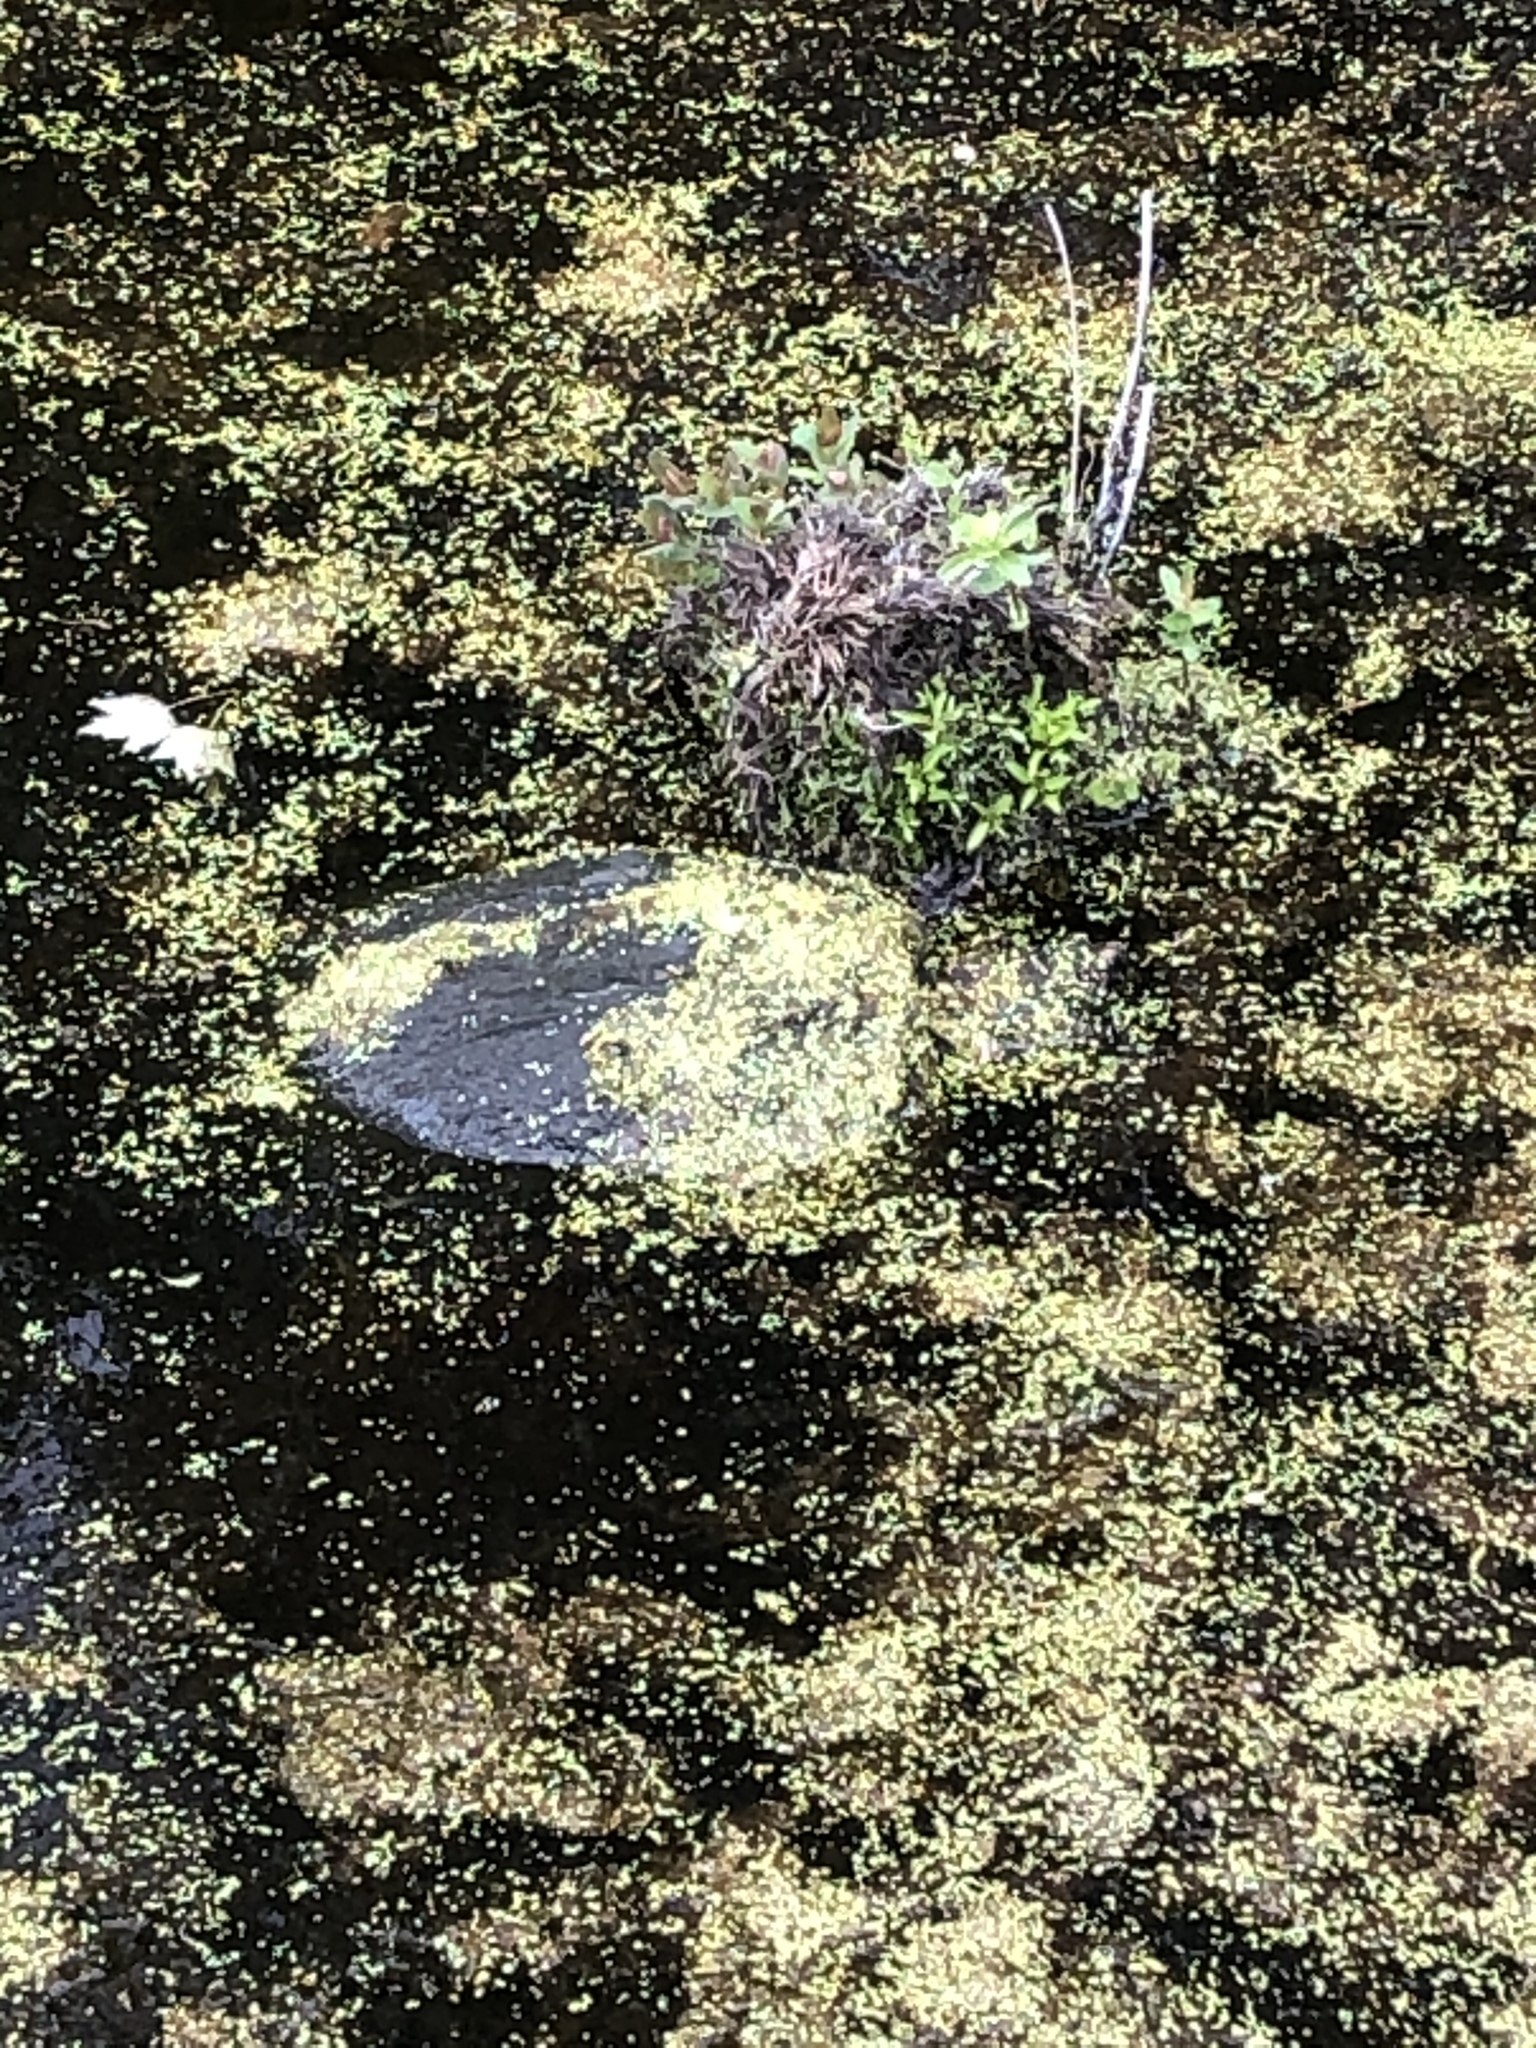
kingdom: Animalia
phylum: Chordata
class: Testudines
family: Chelydridae
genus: Chelydra
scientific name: Chelydra serpentina
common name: Common snapping turtle
